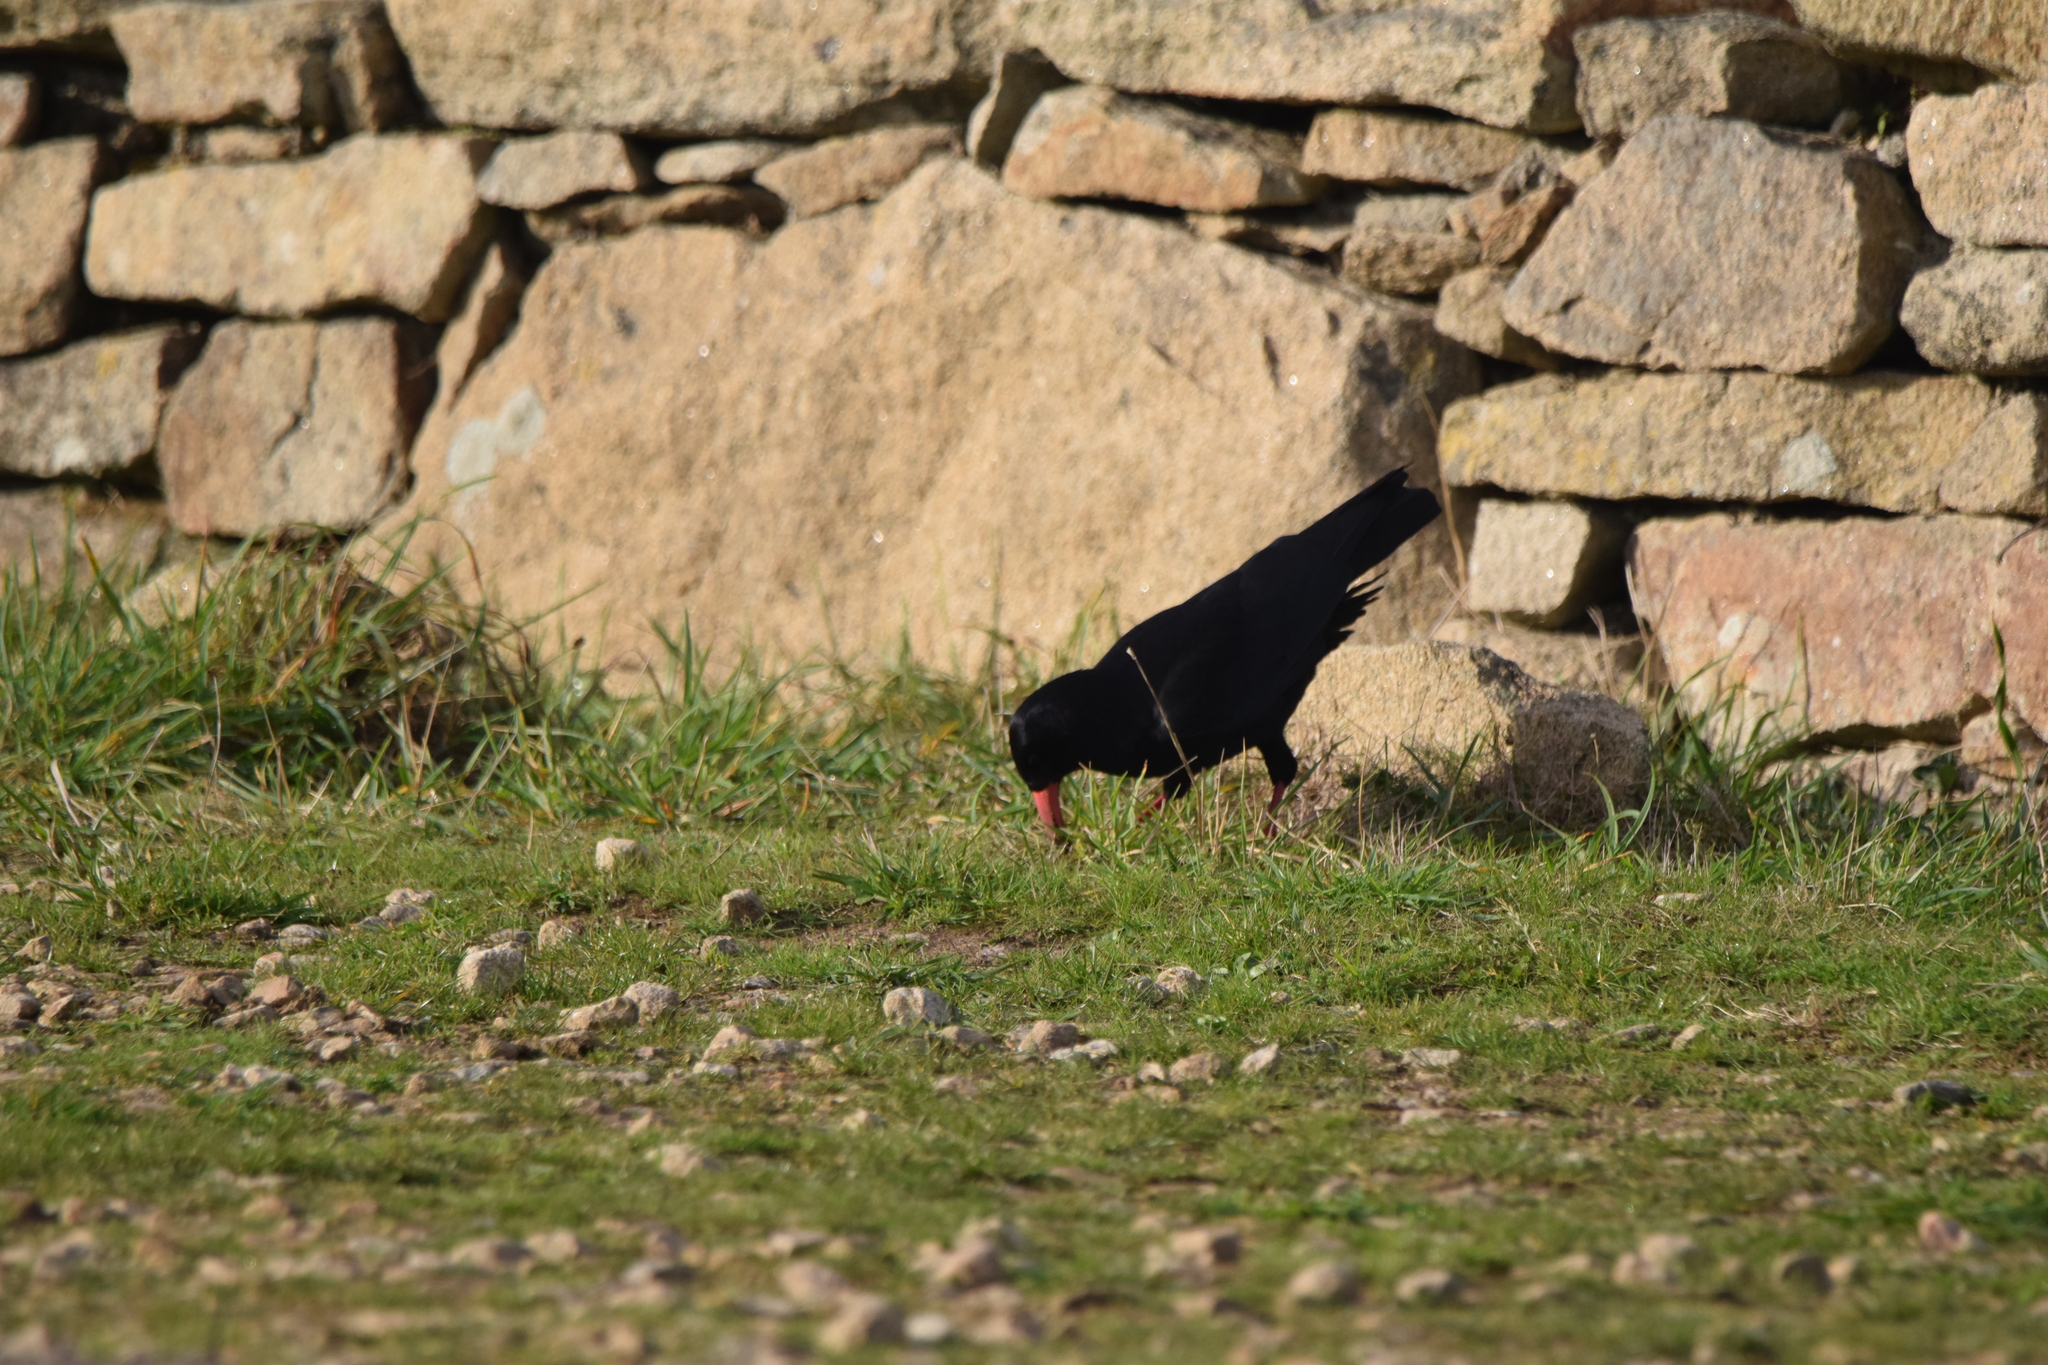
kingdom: Animalia
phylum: Chordata
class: Aves
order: Passeriformes
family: Corvidae
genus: Pyrrhocorax
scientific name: Pyrrhocorax pyrrhocorax
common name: Red-billed chough
